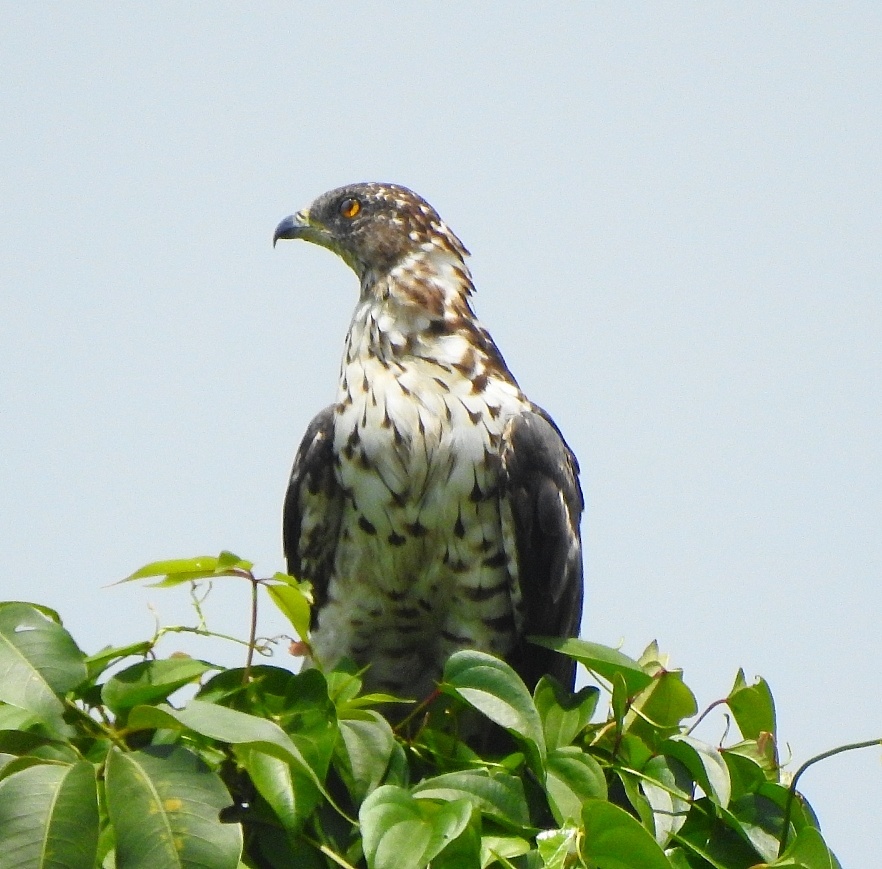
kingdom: Animalia
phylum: Chordata
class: Aves
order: Accipitriformes
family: Accipitridae
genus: Pernis
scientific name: Pernis ptilorhynchus
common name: Crested honey buzzard
